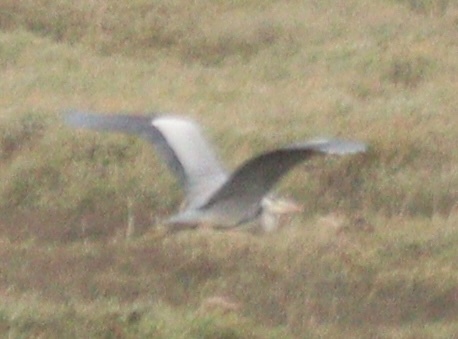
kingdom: Animalia
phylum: Chordata
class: Aves
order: Pelecaniformes
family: Ardeidae
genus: Ardea
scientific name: Ardea cinerea
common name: Grey heron
